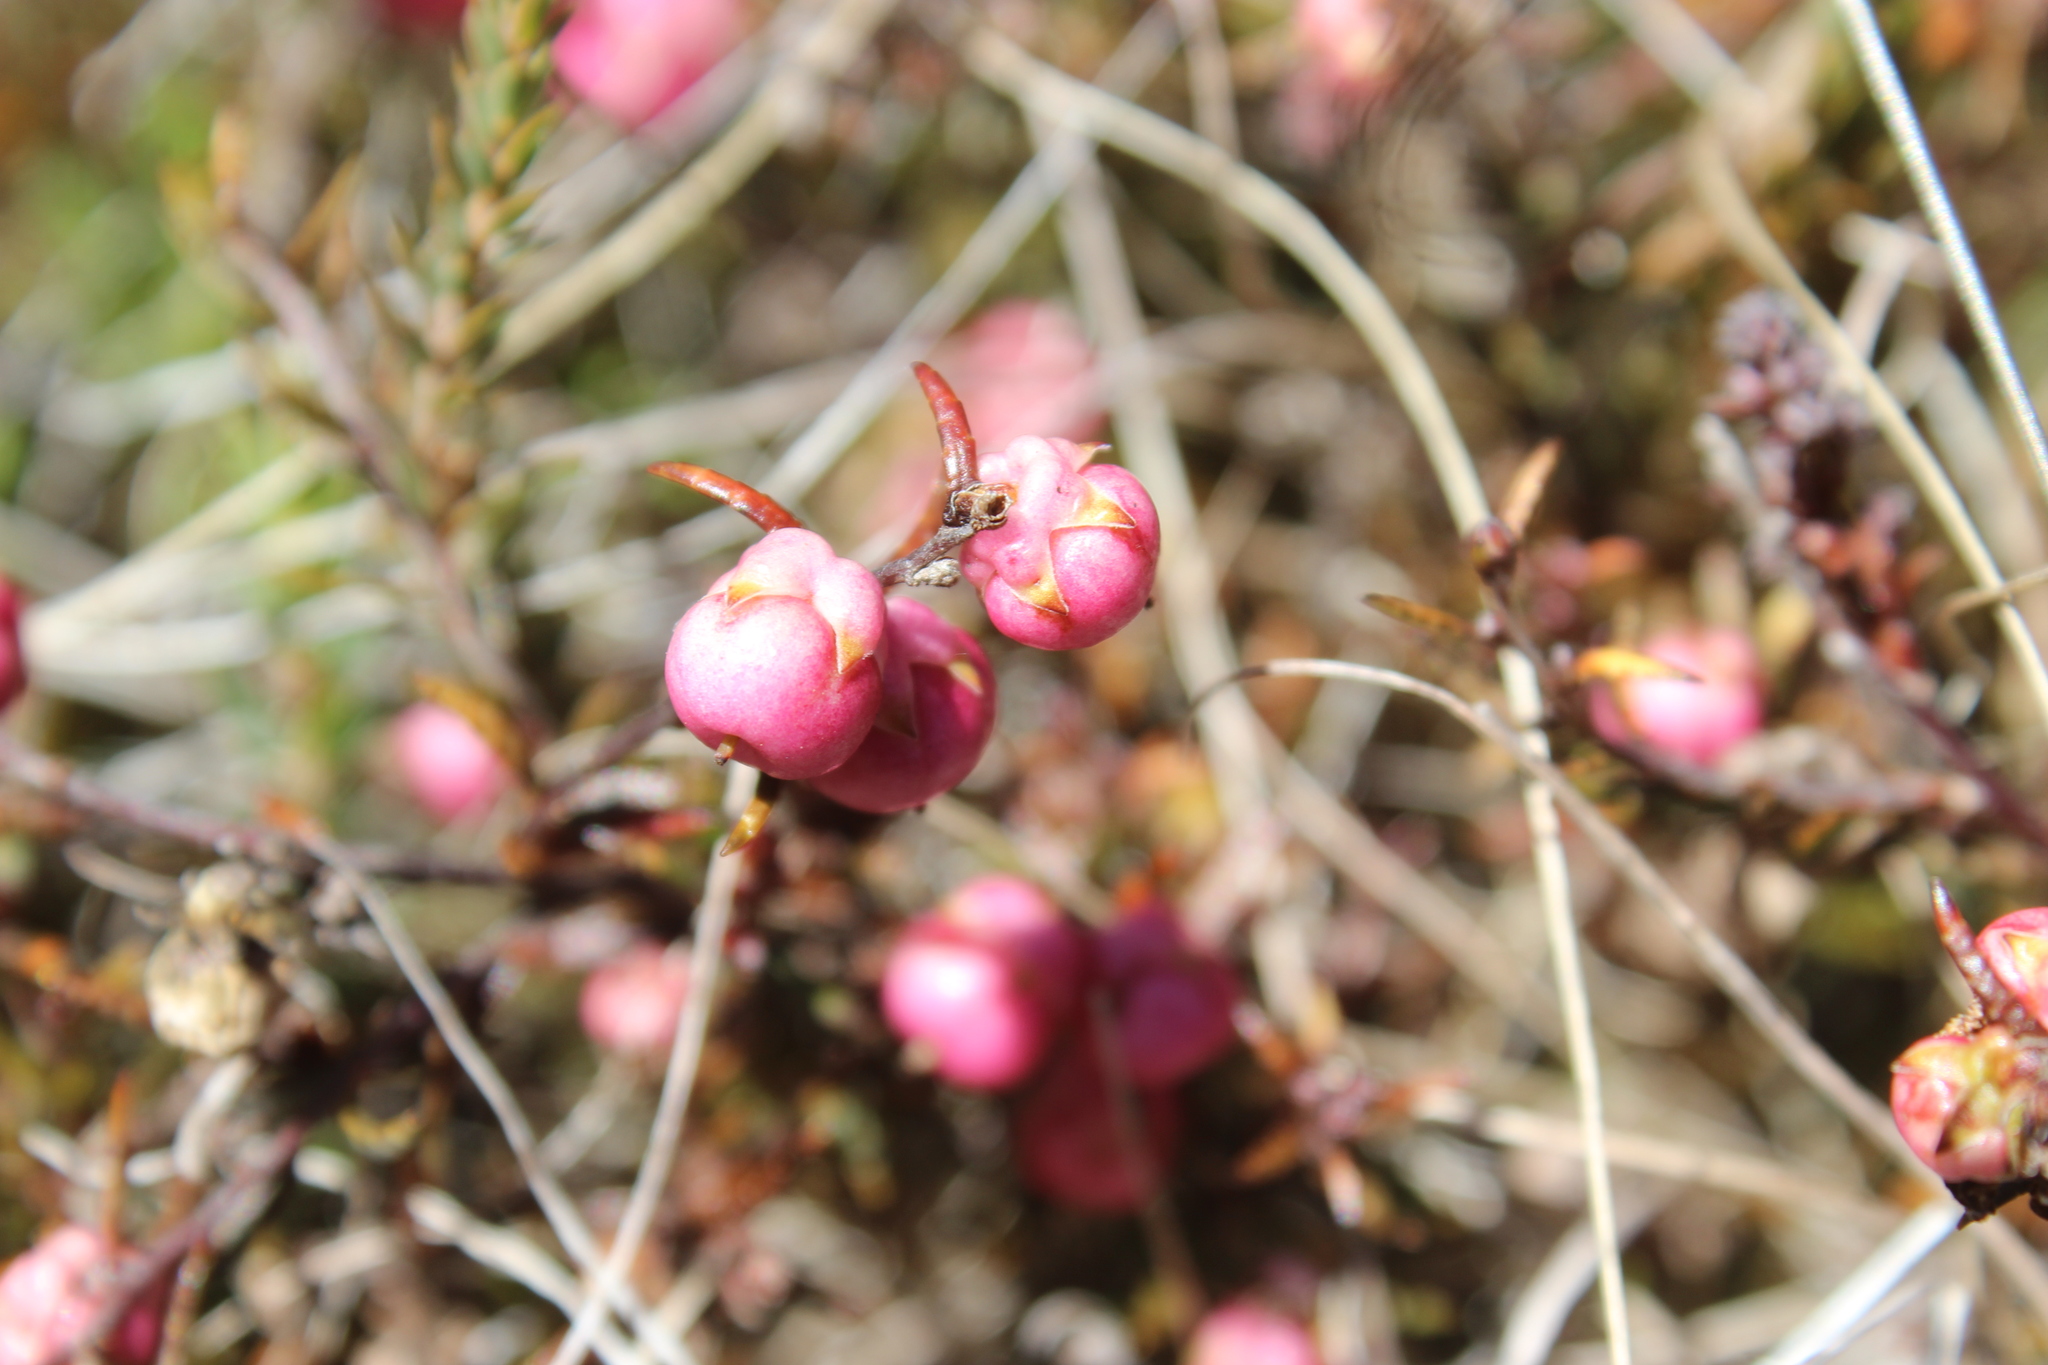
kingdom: Plantae
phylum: Tracheophyta
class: Magnoliopsida
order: Ericales
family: Ericaceae
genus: Gaultheria
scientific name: Gaultheria macrostigma
